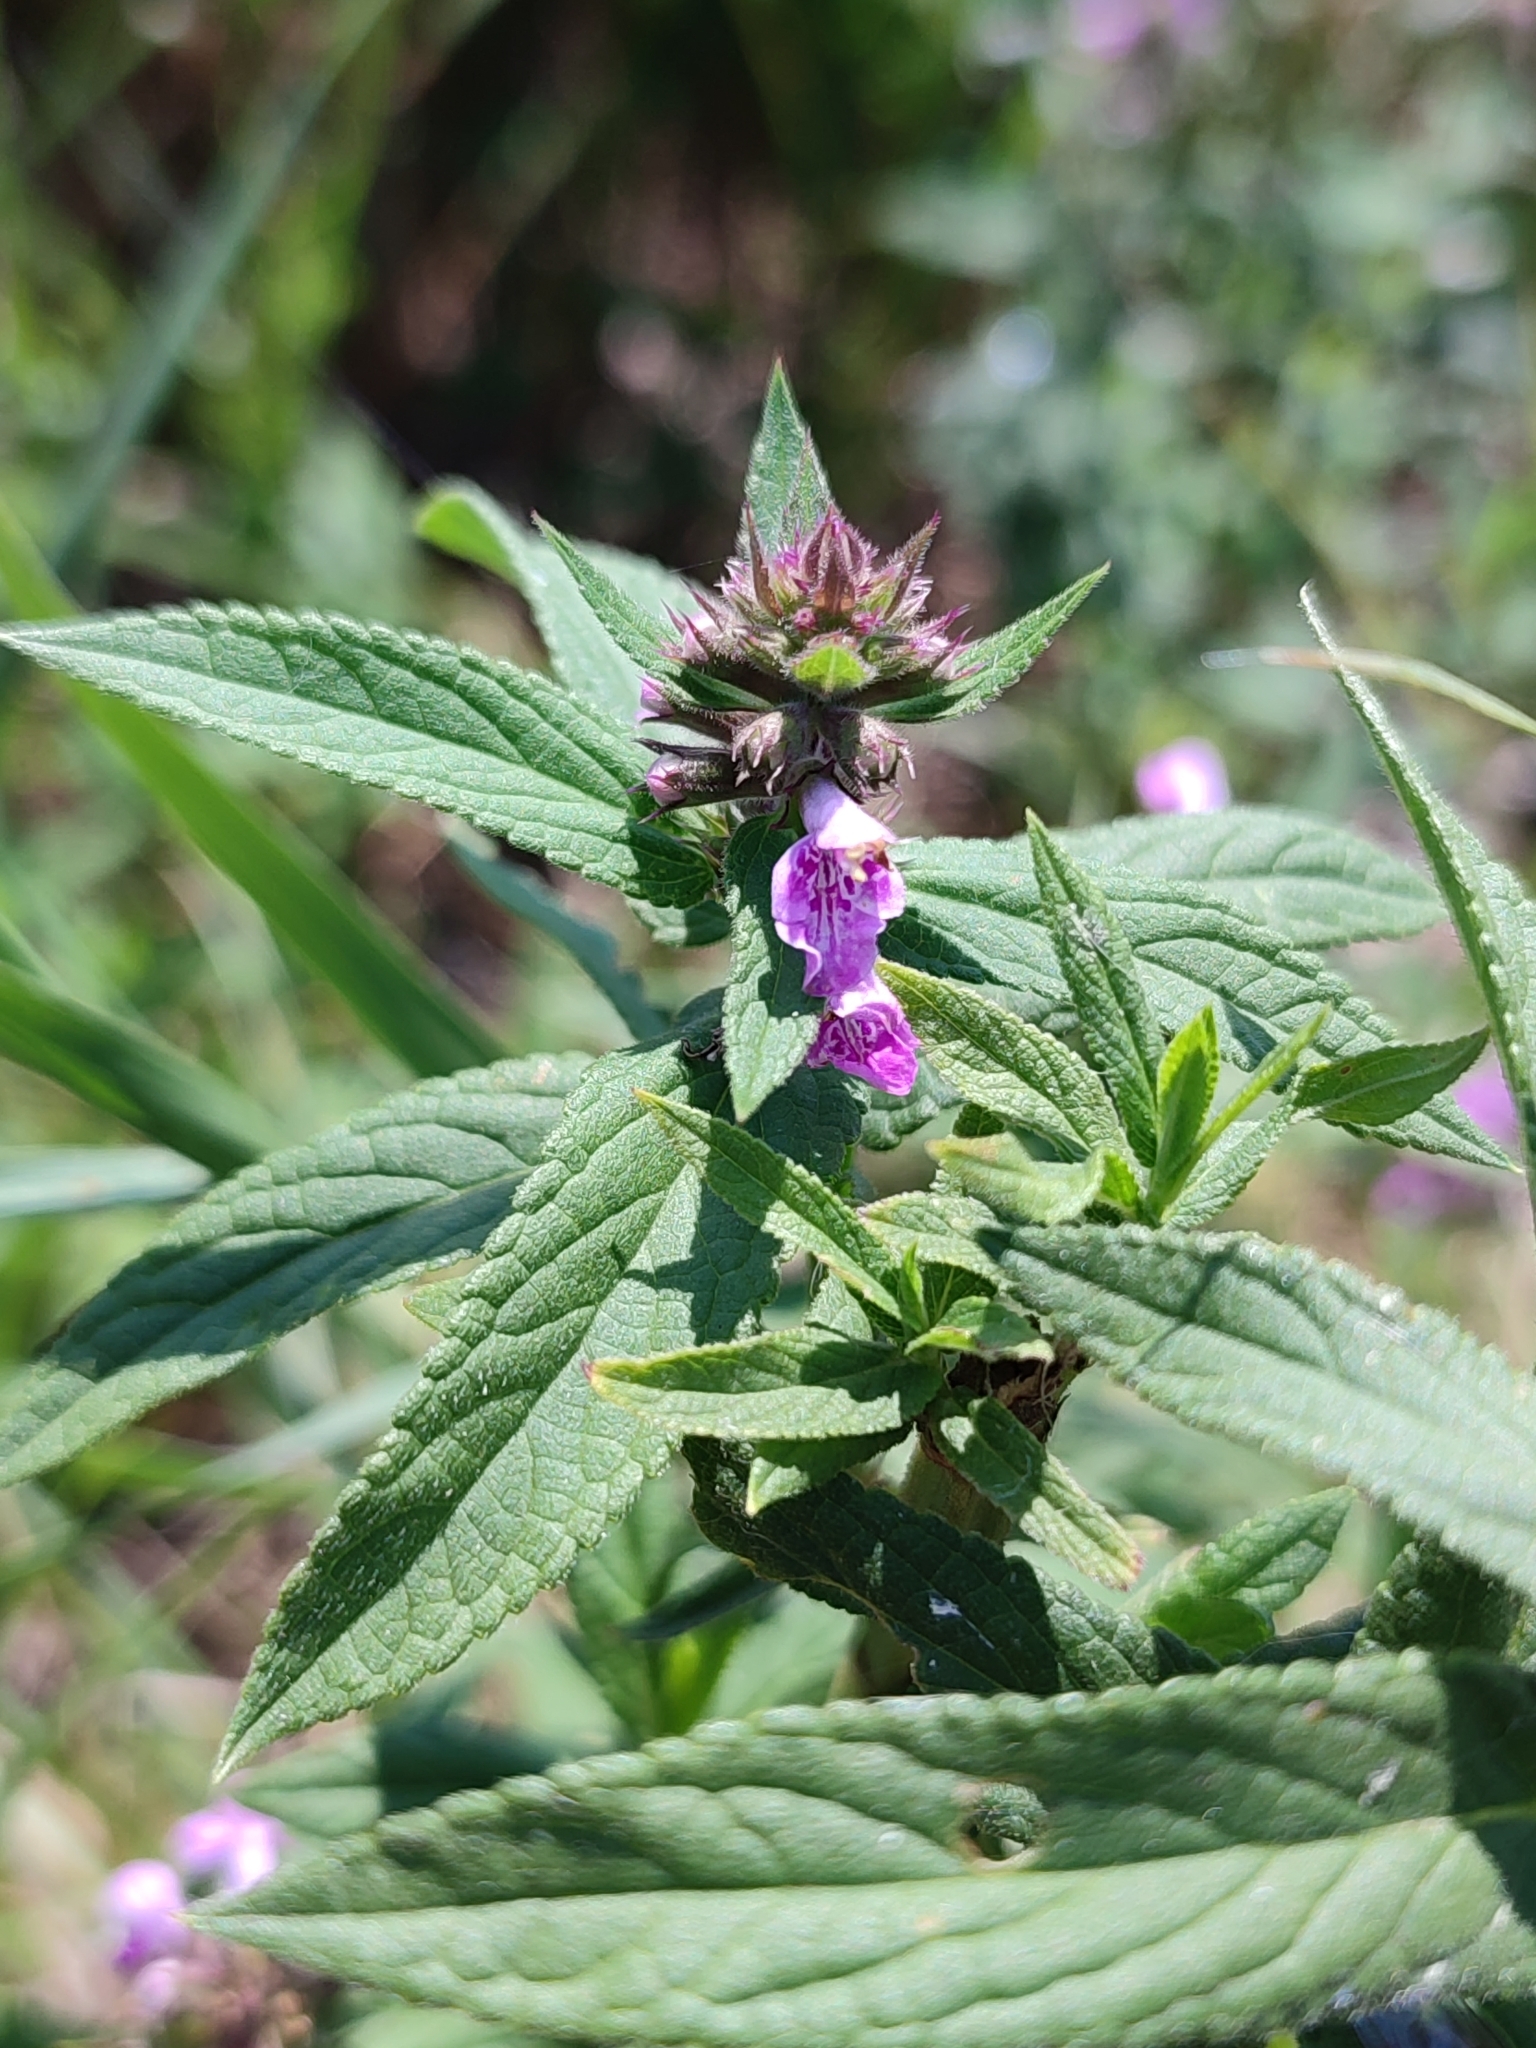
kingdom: Plantae
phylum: Tracheophyta
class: Magnoliopsida
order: Lamiales
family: Lamiaceae
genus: Stachys
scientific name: Stachys palustris
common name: Marsh woundwort
